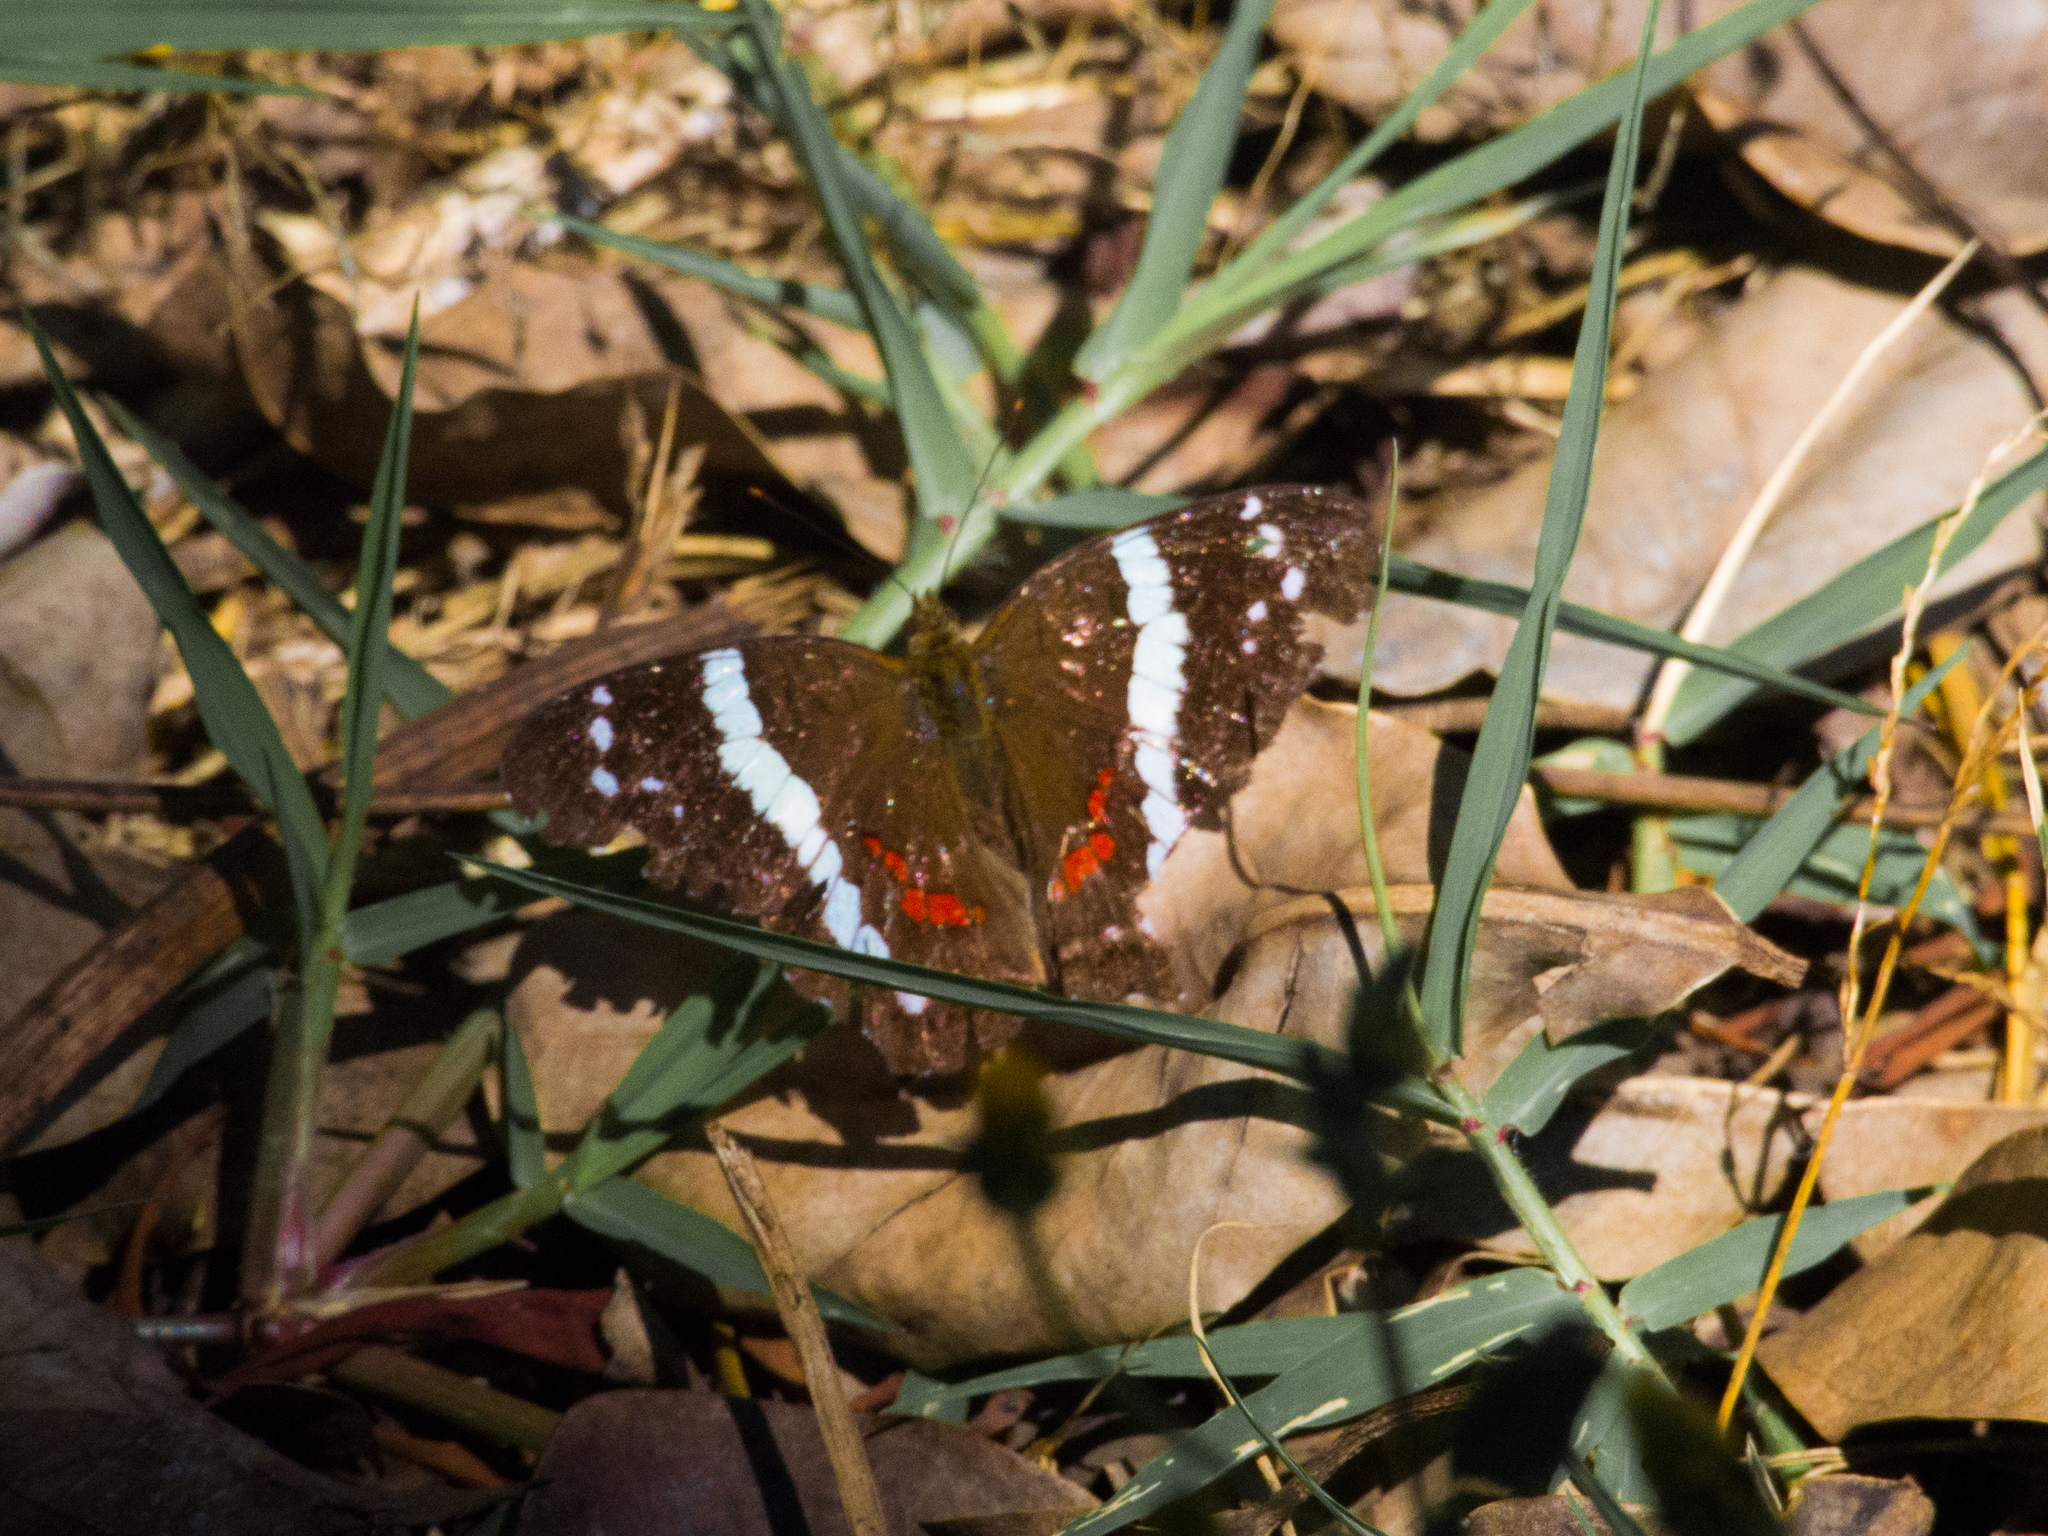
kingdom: Animalia
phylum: Arthropoda
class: Insecta
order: Lepidoptera
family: Nymphalidae
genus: Anartia
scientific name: Anartia fatima
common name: Banded peacock
